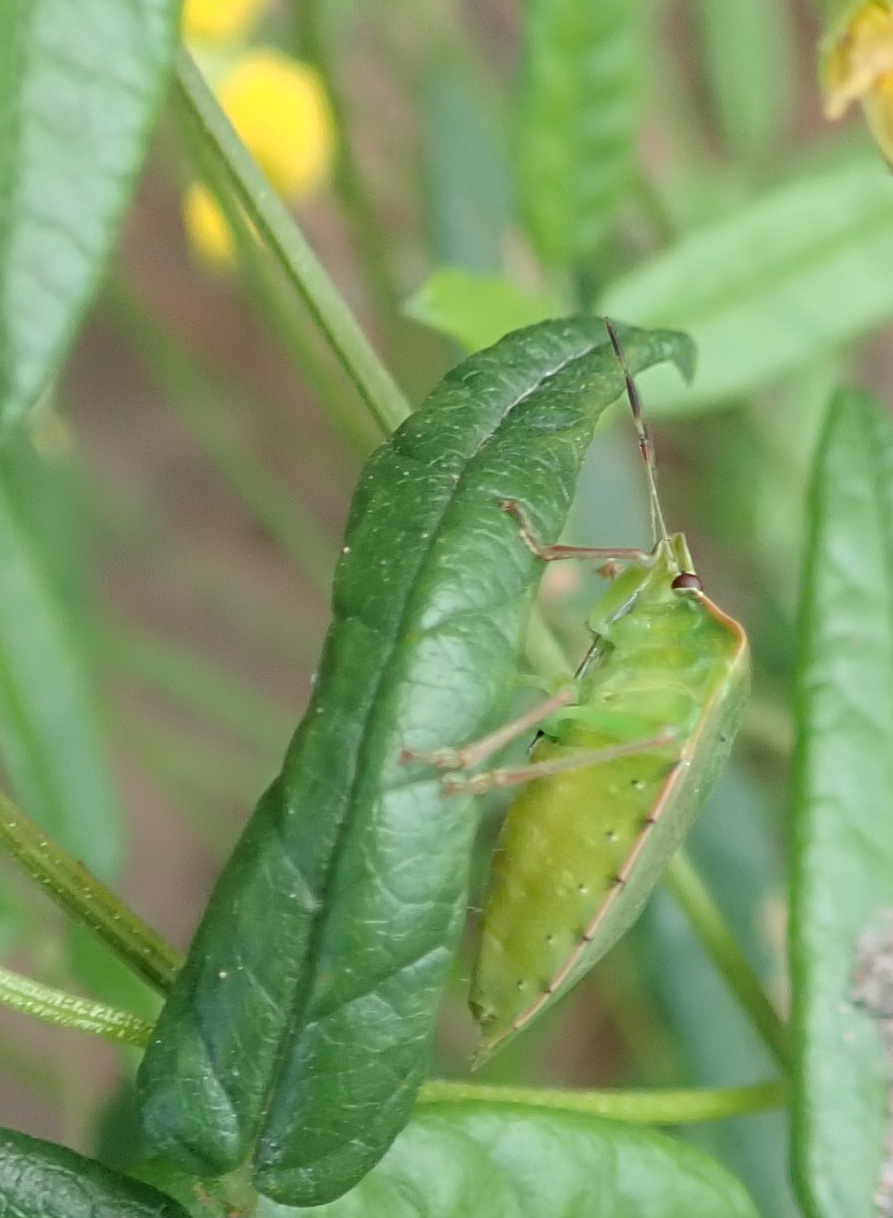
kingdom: Animalia
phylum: Arthropoda
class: Insecta
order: Hemiptera
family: Pentatomidae
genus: Chinavia
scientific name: Chinavia
